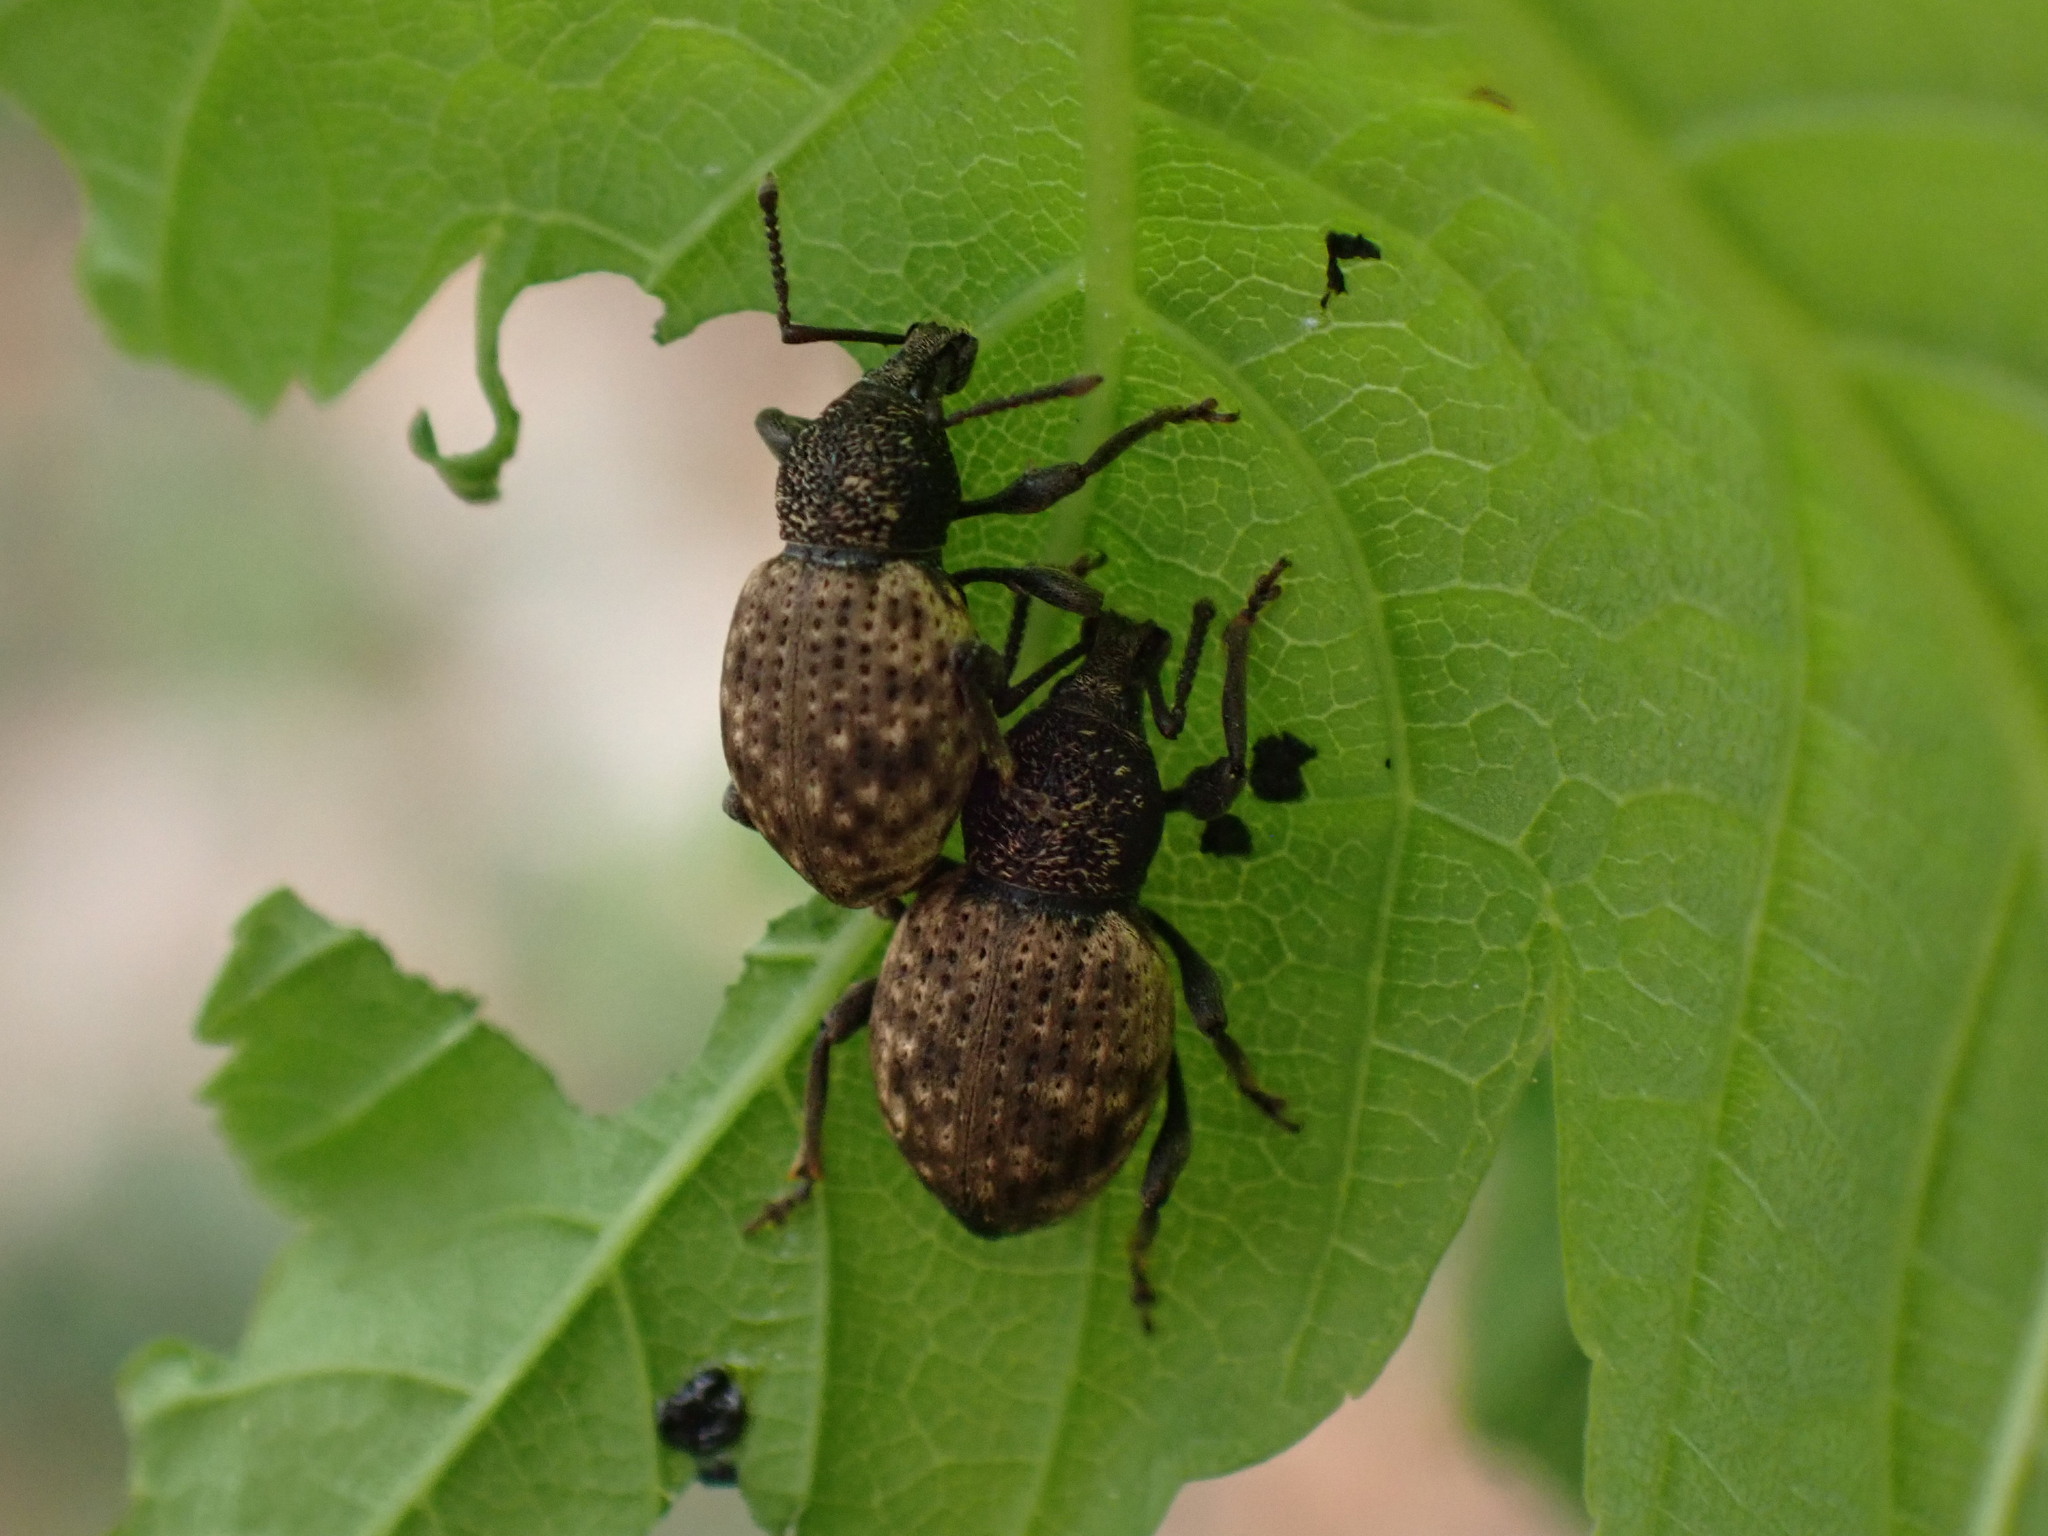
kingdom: Animalia
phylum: Arthropoda
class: Insecta
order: Coleoptera
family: Curculionidae
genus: Otiorhynchus
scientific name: Otiorhynchus raucus
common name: Weevil
